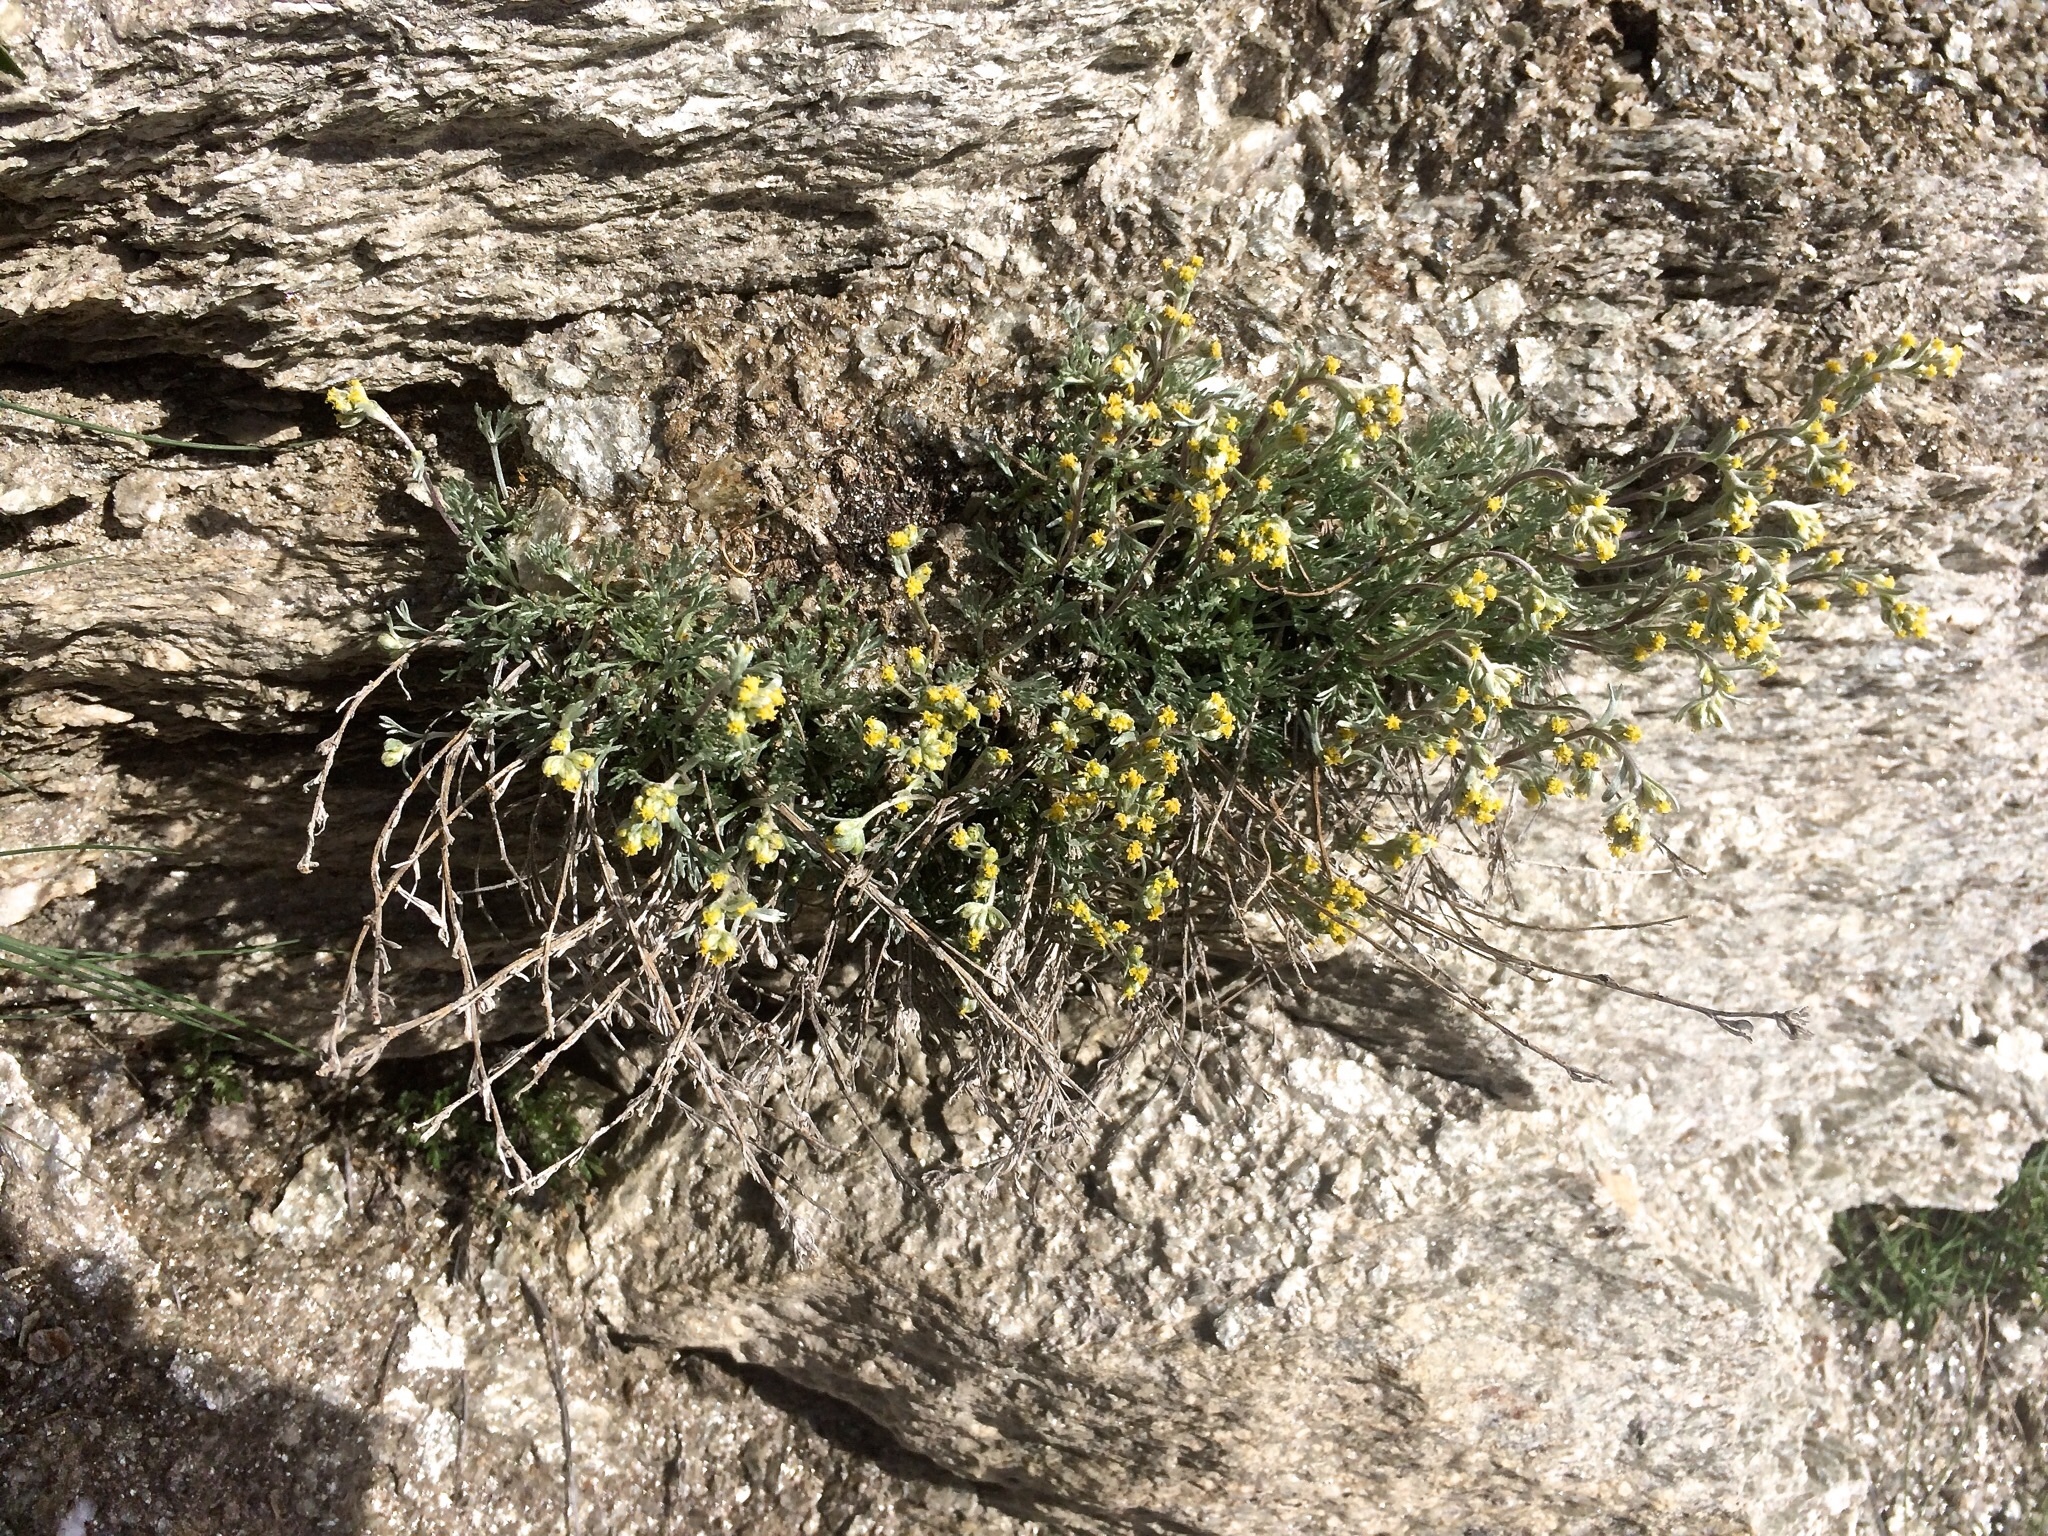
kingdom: Plantae
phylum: Tracheophyta
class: Magnoliopsida
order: Asterales
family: Asteraceae
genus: Artemisia
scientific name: Artemisia umbelliformis
